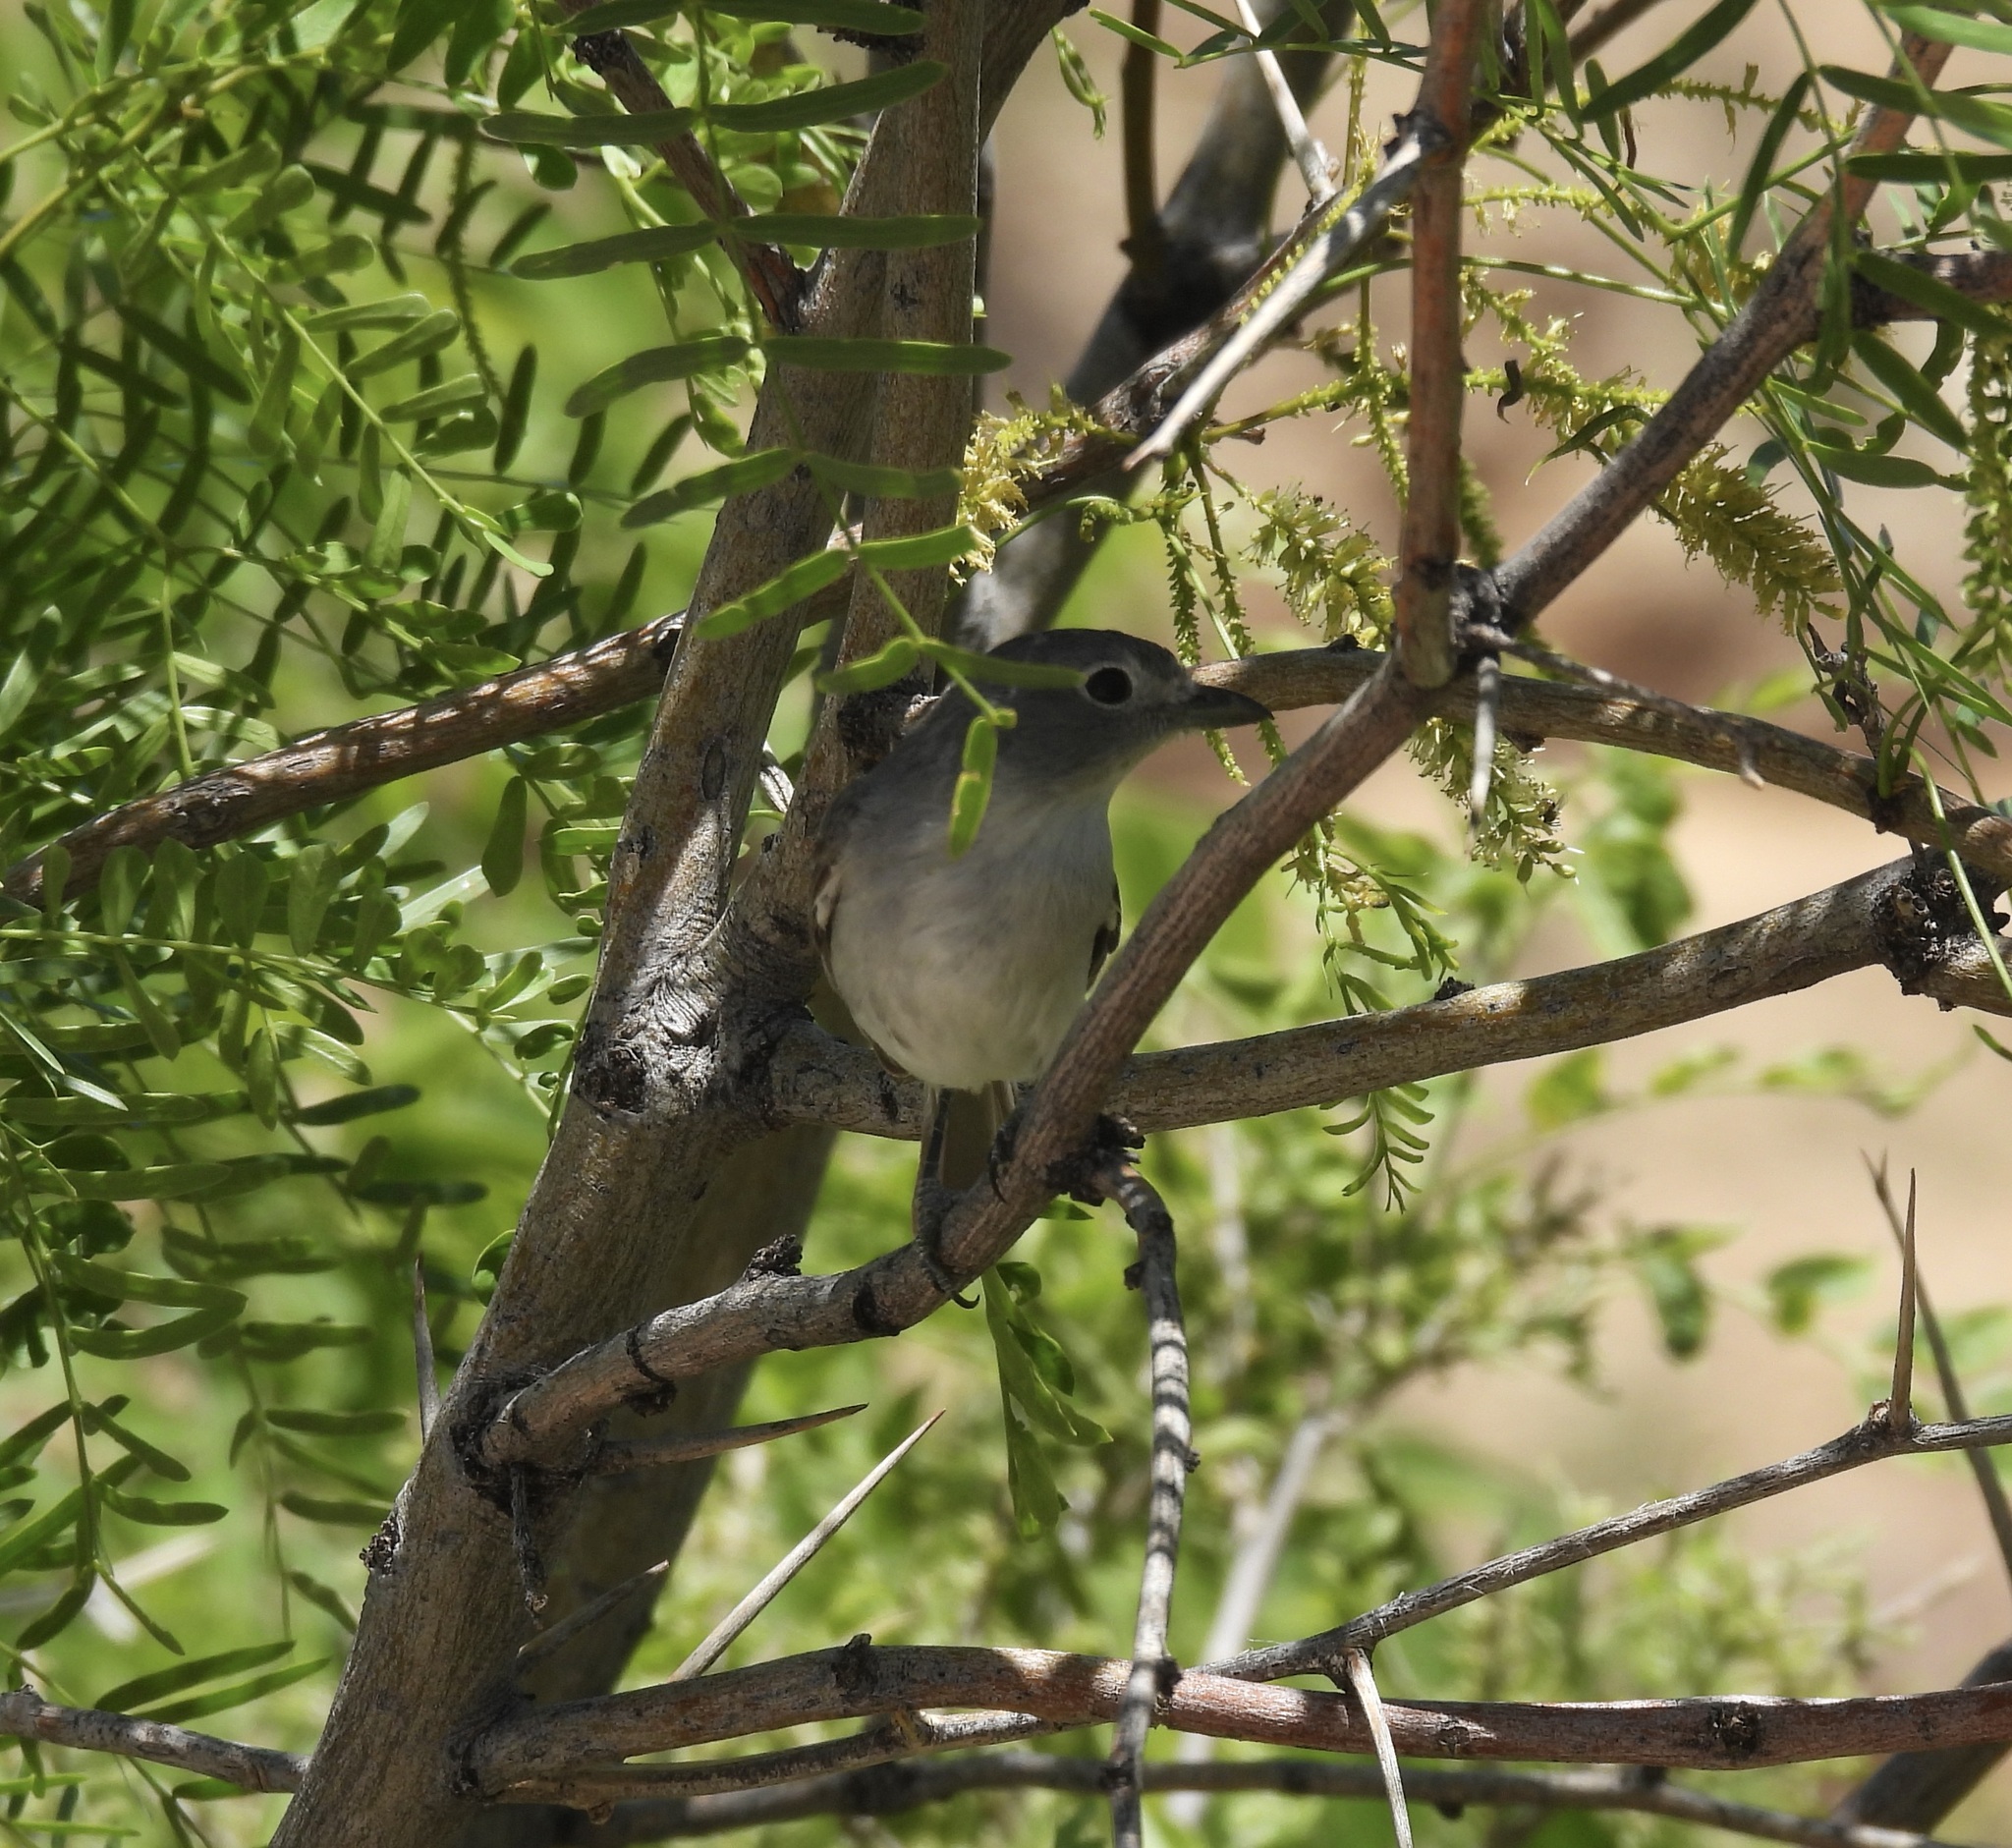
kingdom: Animalia
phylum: Chordata
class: Aves
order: Passeriformes
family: Vireonidae
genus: Vireo
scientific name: Vireo vicinior
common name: Gray vireo
